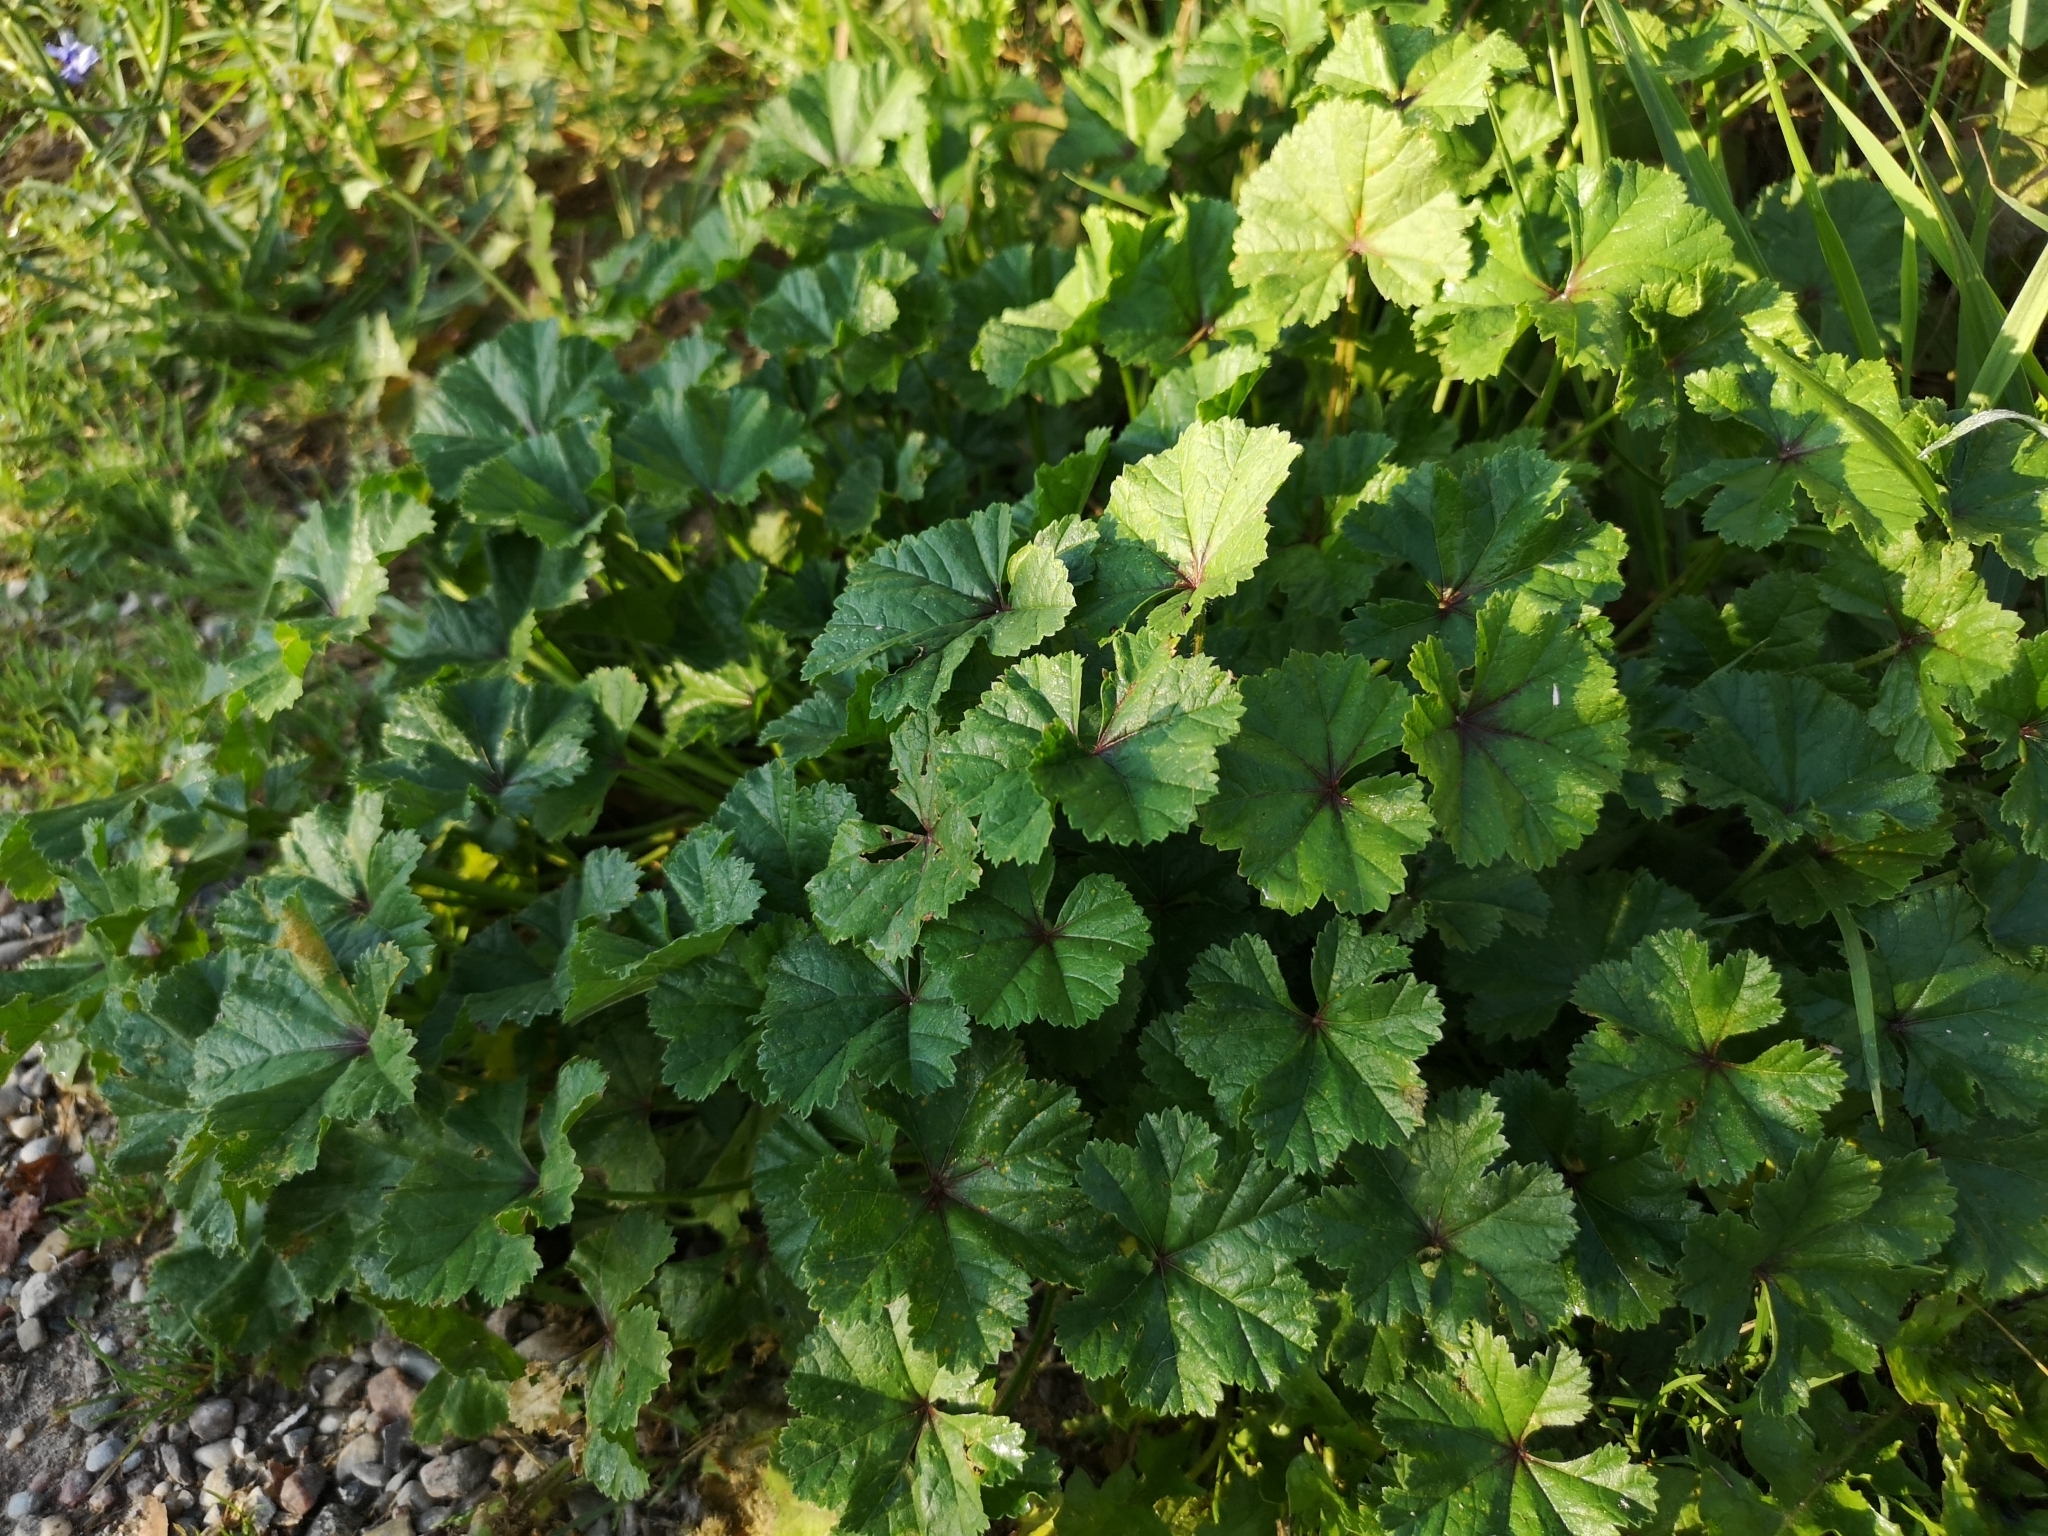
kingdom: Plantae
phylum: Tracheophyta
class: Magnoliopsida
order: Malvales
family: Malvaceae
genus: Malva
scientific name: Malva sylvestris
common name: Common mallow
